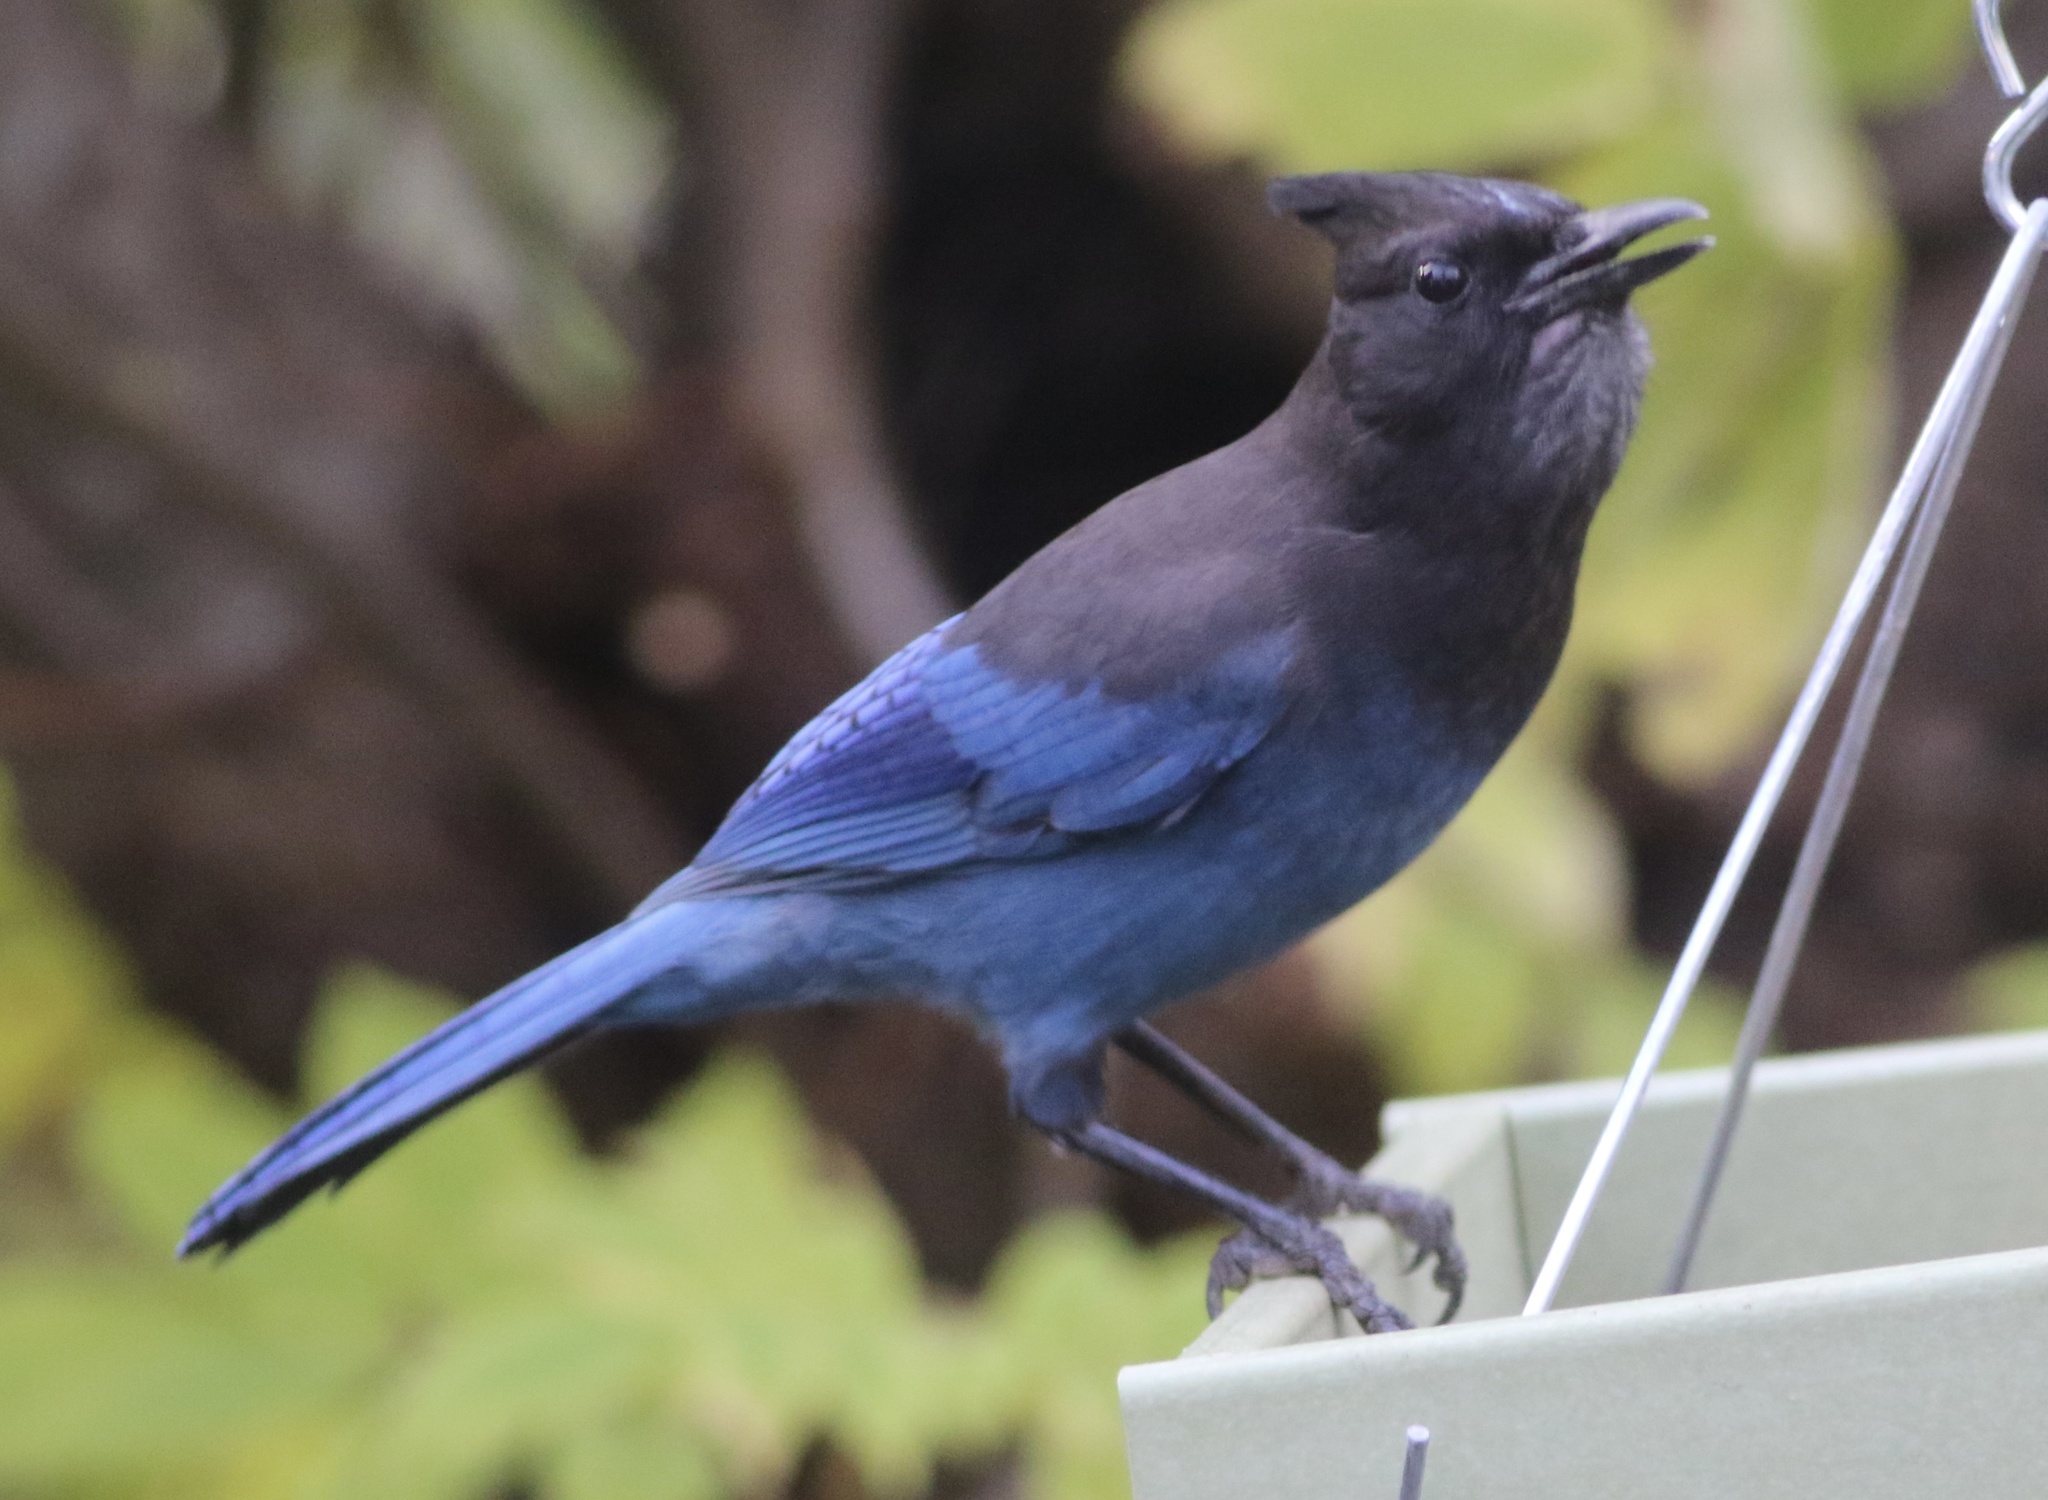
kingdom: Animalia
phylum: Chordata
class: Aves
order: Passeriformes
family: Corvidae
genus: Cyanocitta
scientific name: Cyanocitta stelleri
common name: Steller's jay
